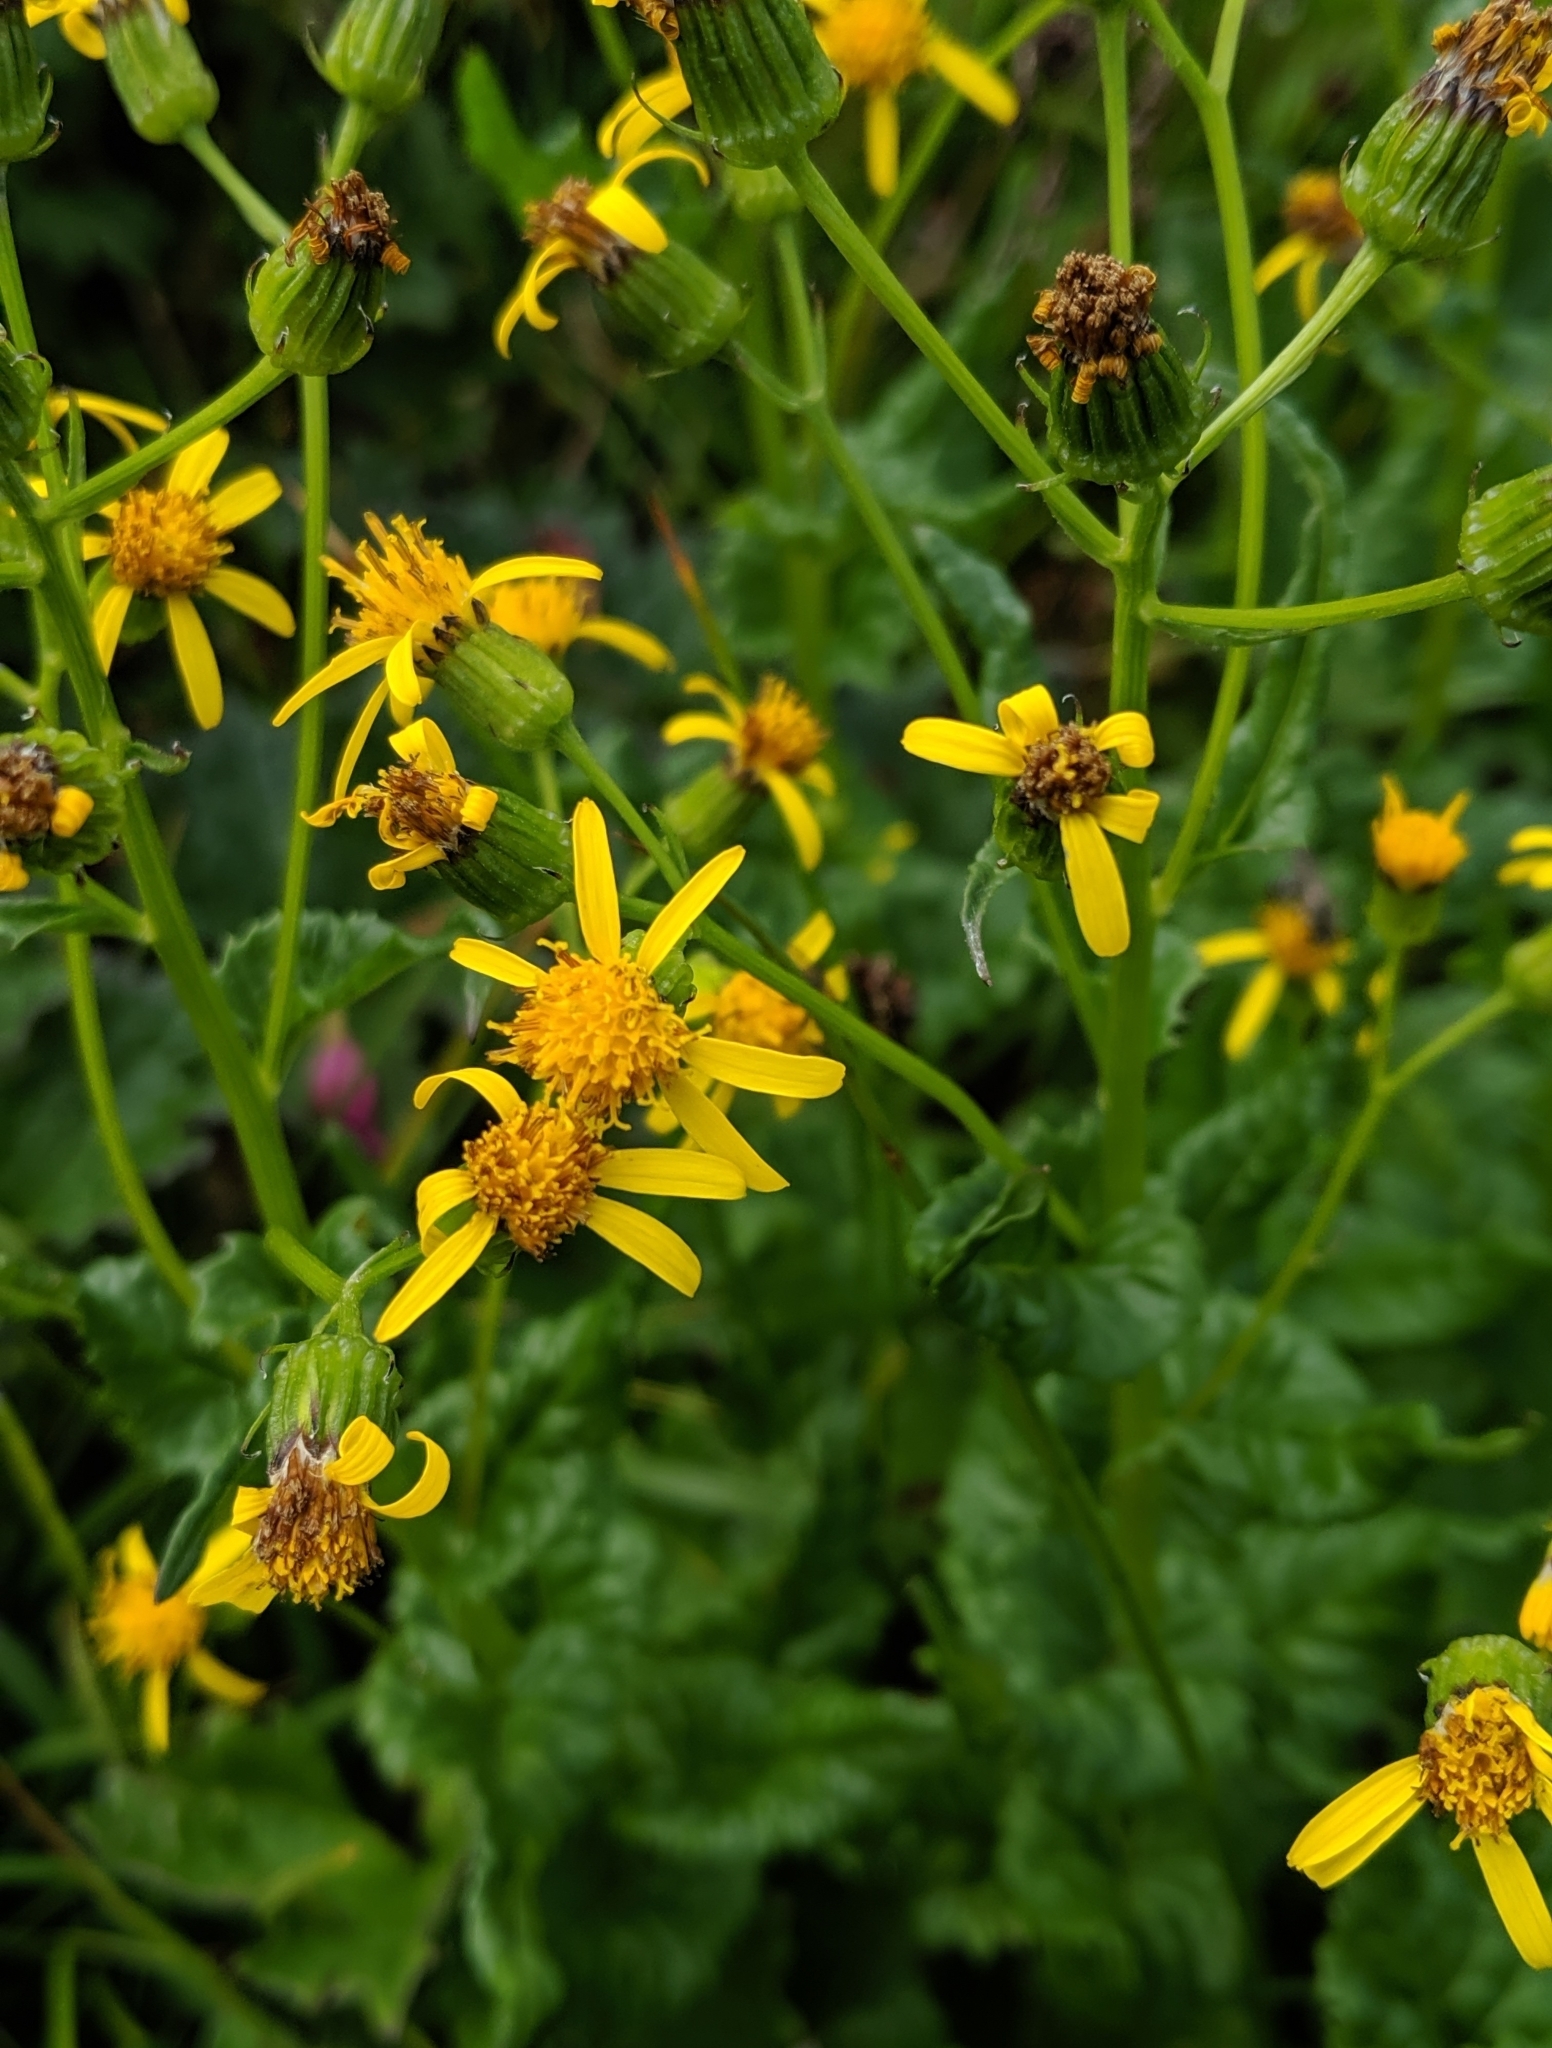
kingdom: Plantae
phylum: Tracheophyta
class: Magnoliopsida
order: Asterales
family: Asteraceae
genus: Senecio
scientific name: Senecio triangularis
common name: Arrowleaf butterweed
